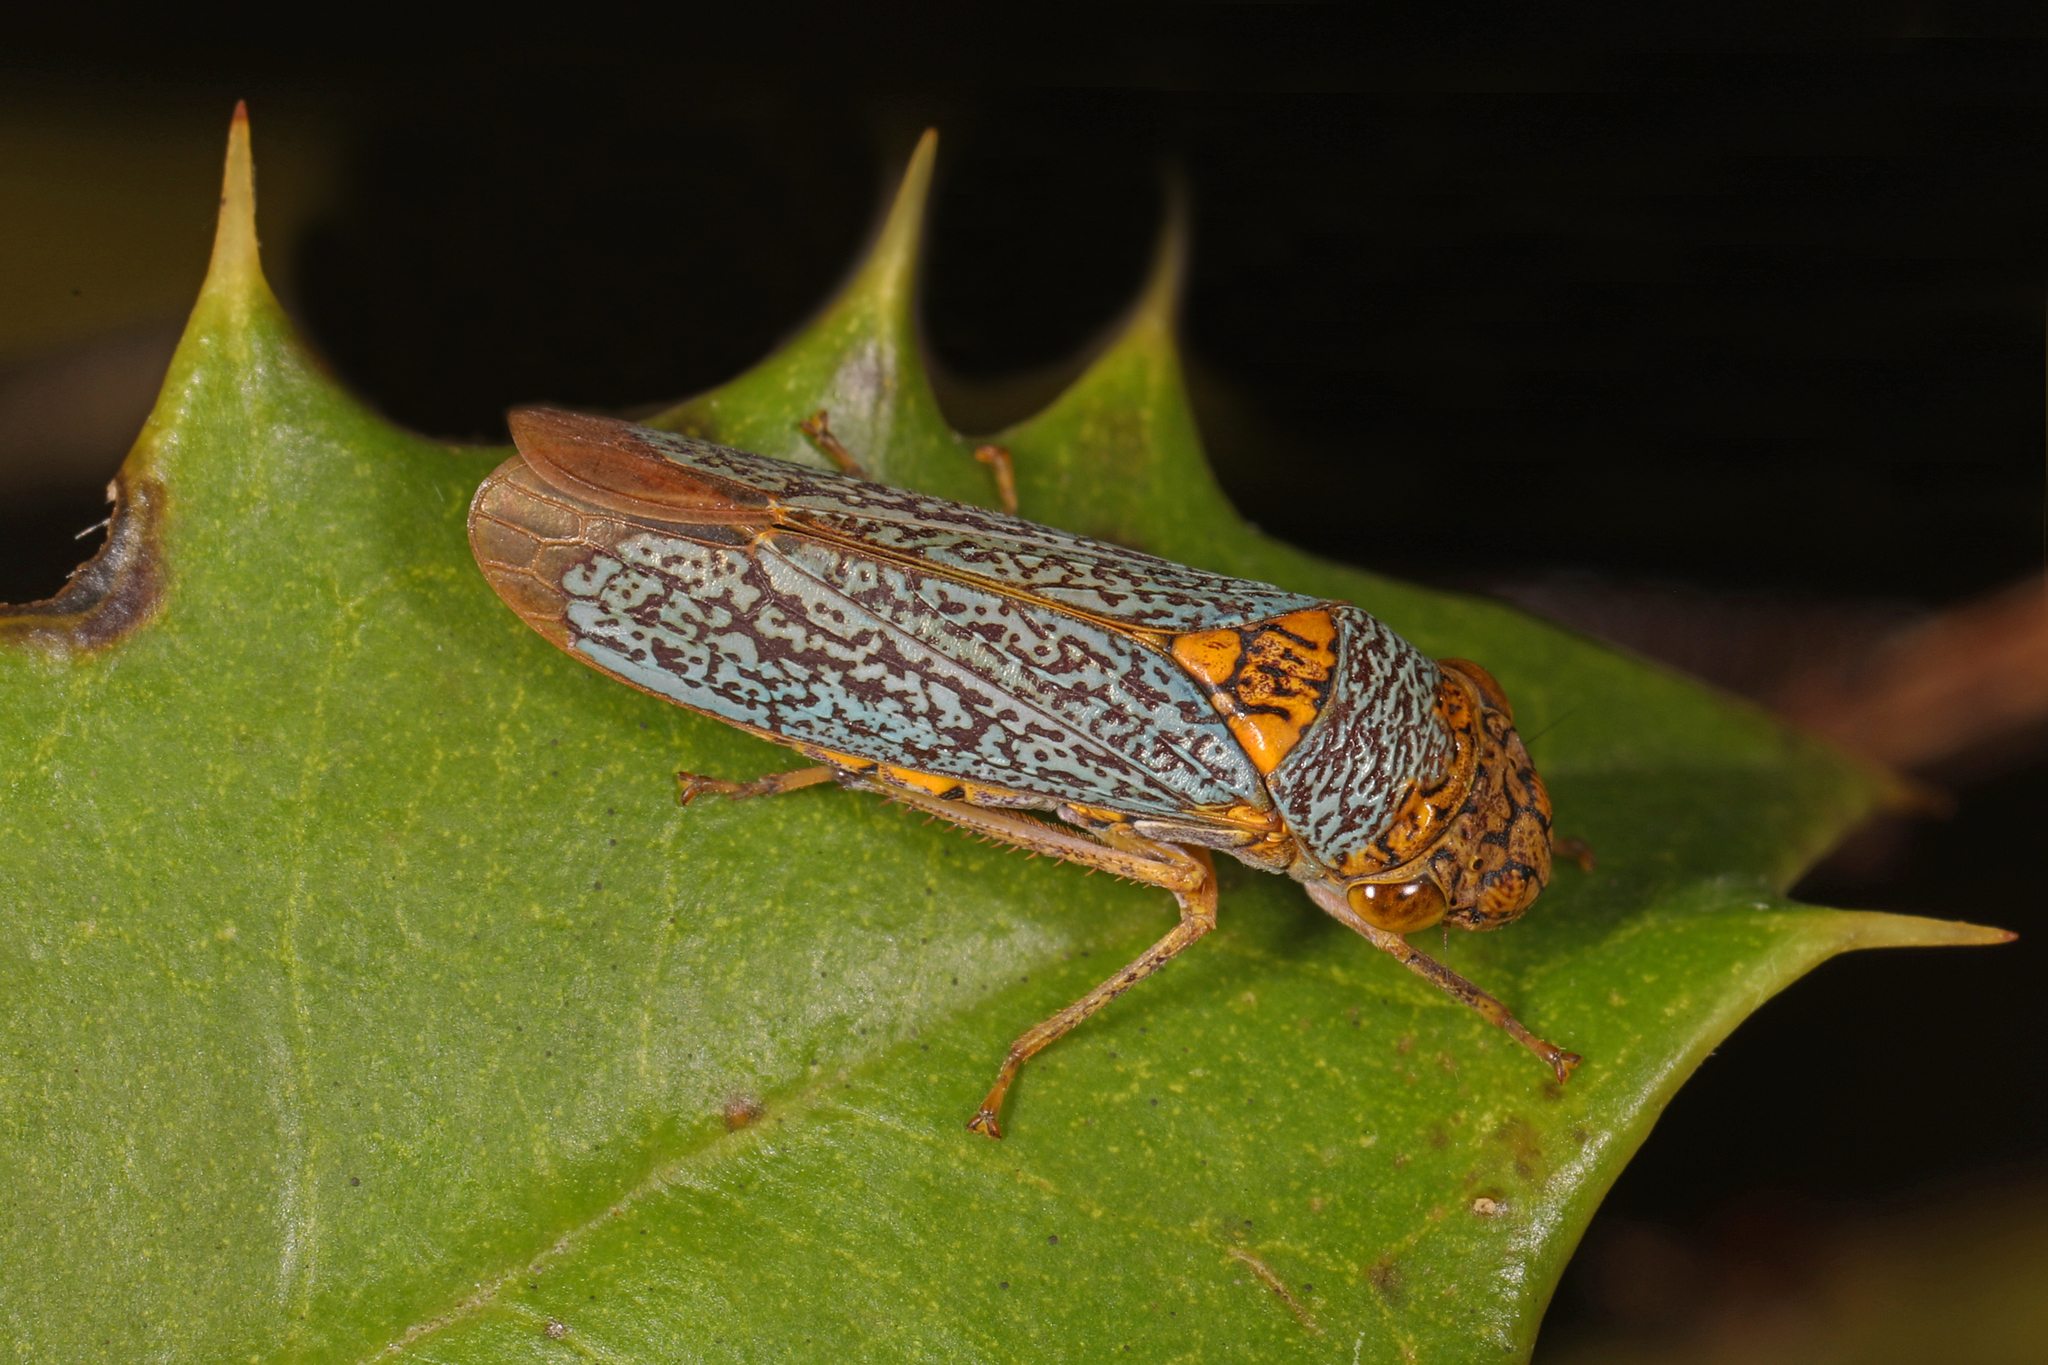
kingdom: Animalia
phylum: Arthropoda
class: Insecta
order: Hemiptera
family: Cicadellidae
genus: Oncometopia
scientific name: Oncometopia orbona
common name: Broad-headed sharpshooter
